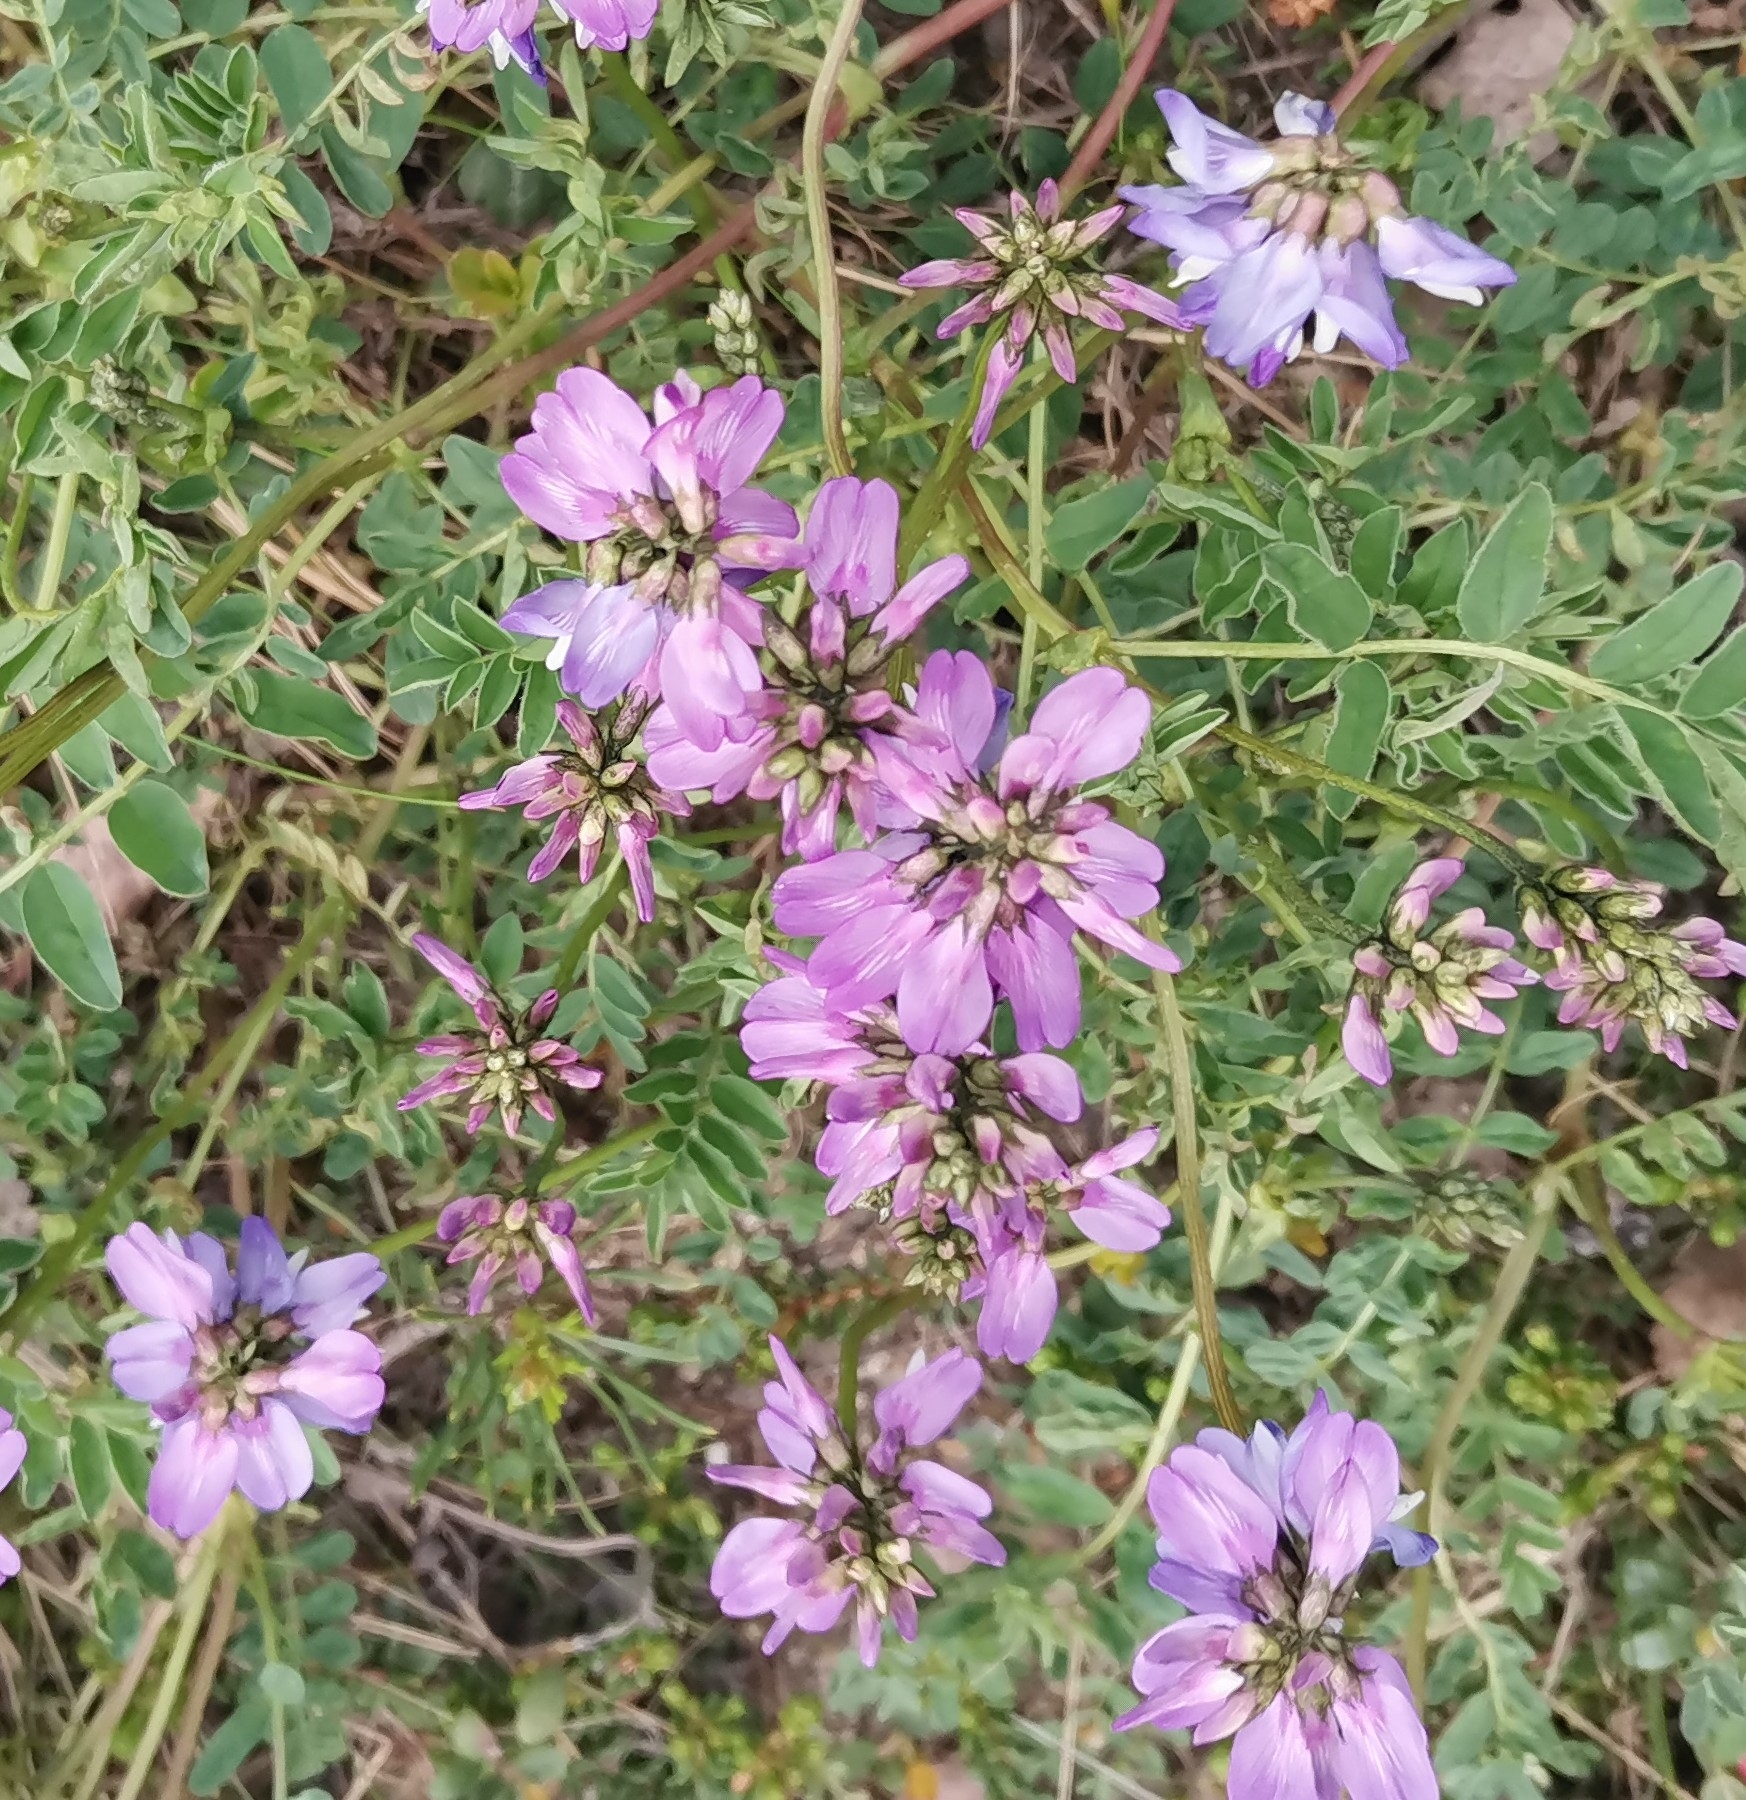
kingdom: Plantae
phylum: Tracheophyta
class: Magnoliopsida
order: Fabales
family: Fabaceae
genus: Astragalus
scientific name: Astragalus alpinus
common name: Alpine milk-vetch
